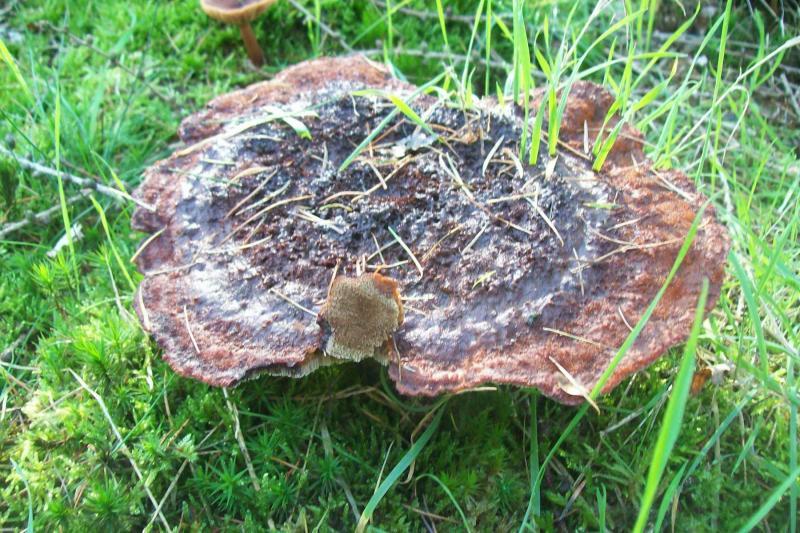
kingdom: Fungi
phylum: Basidiomycota
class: Agaricomycetes
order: Polyporales
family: Laetiporaceae
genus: Phaeolus
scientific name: Phaeolus schweinitzii
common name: Dyer's mazegill
